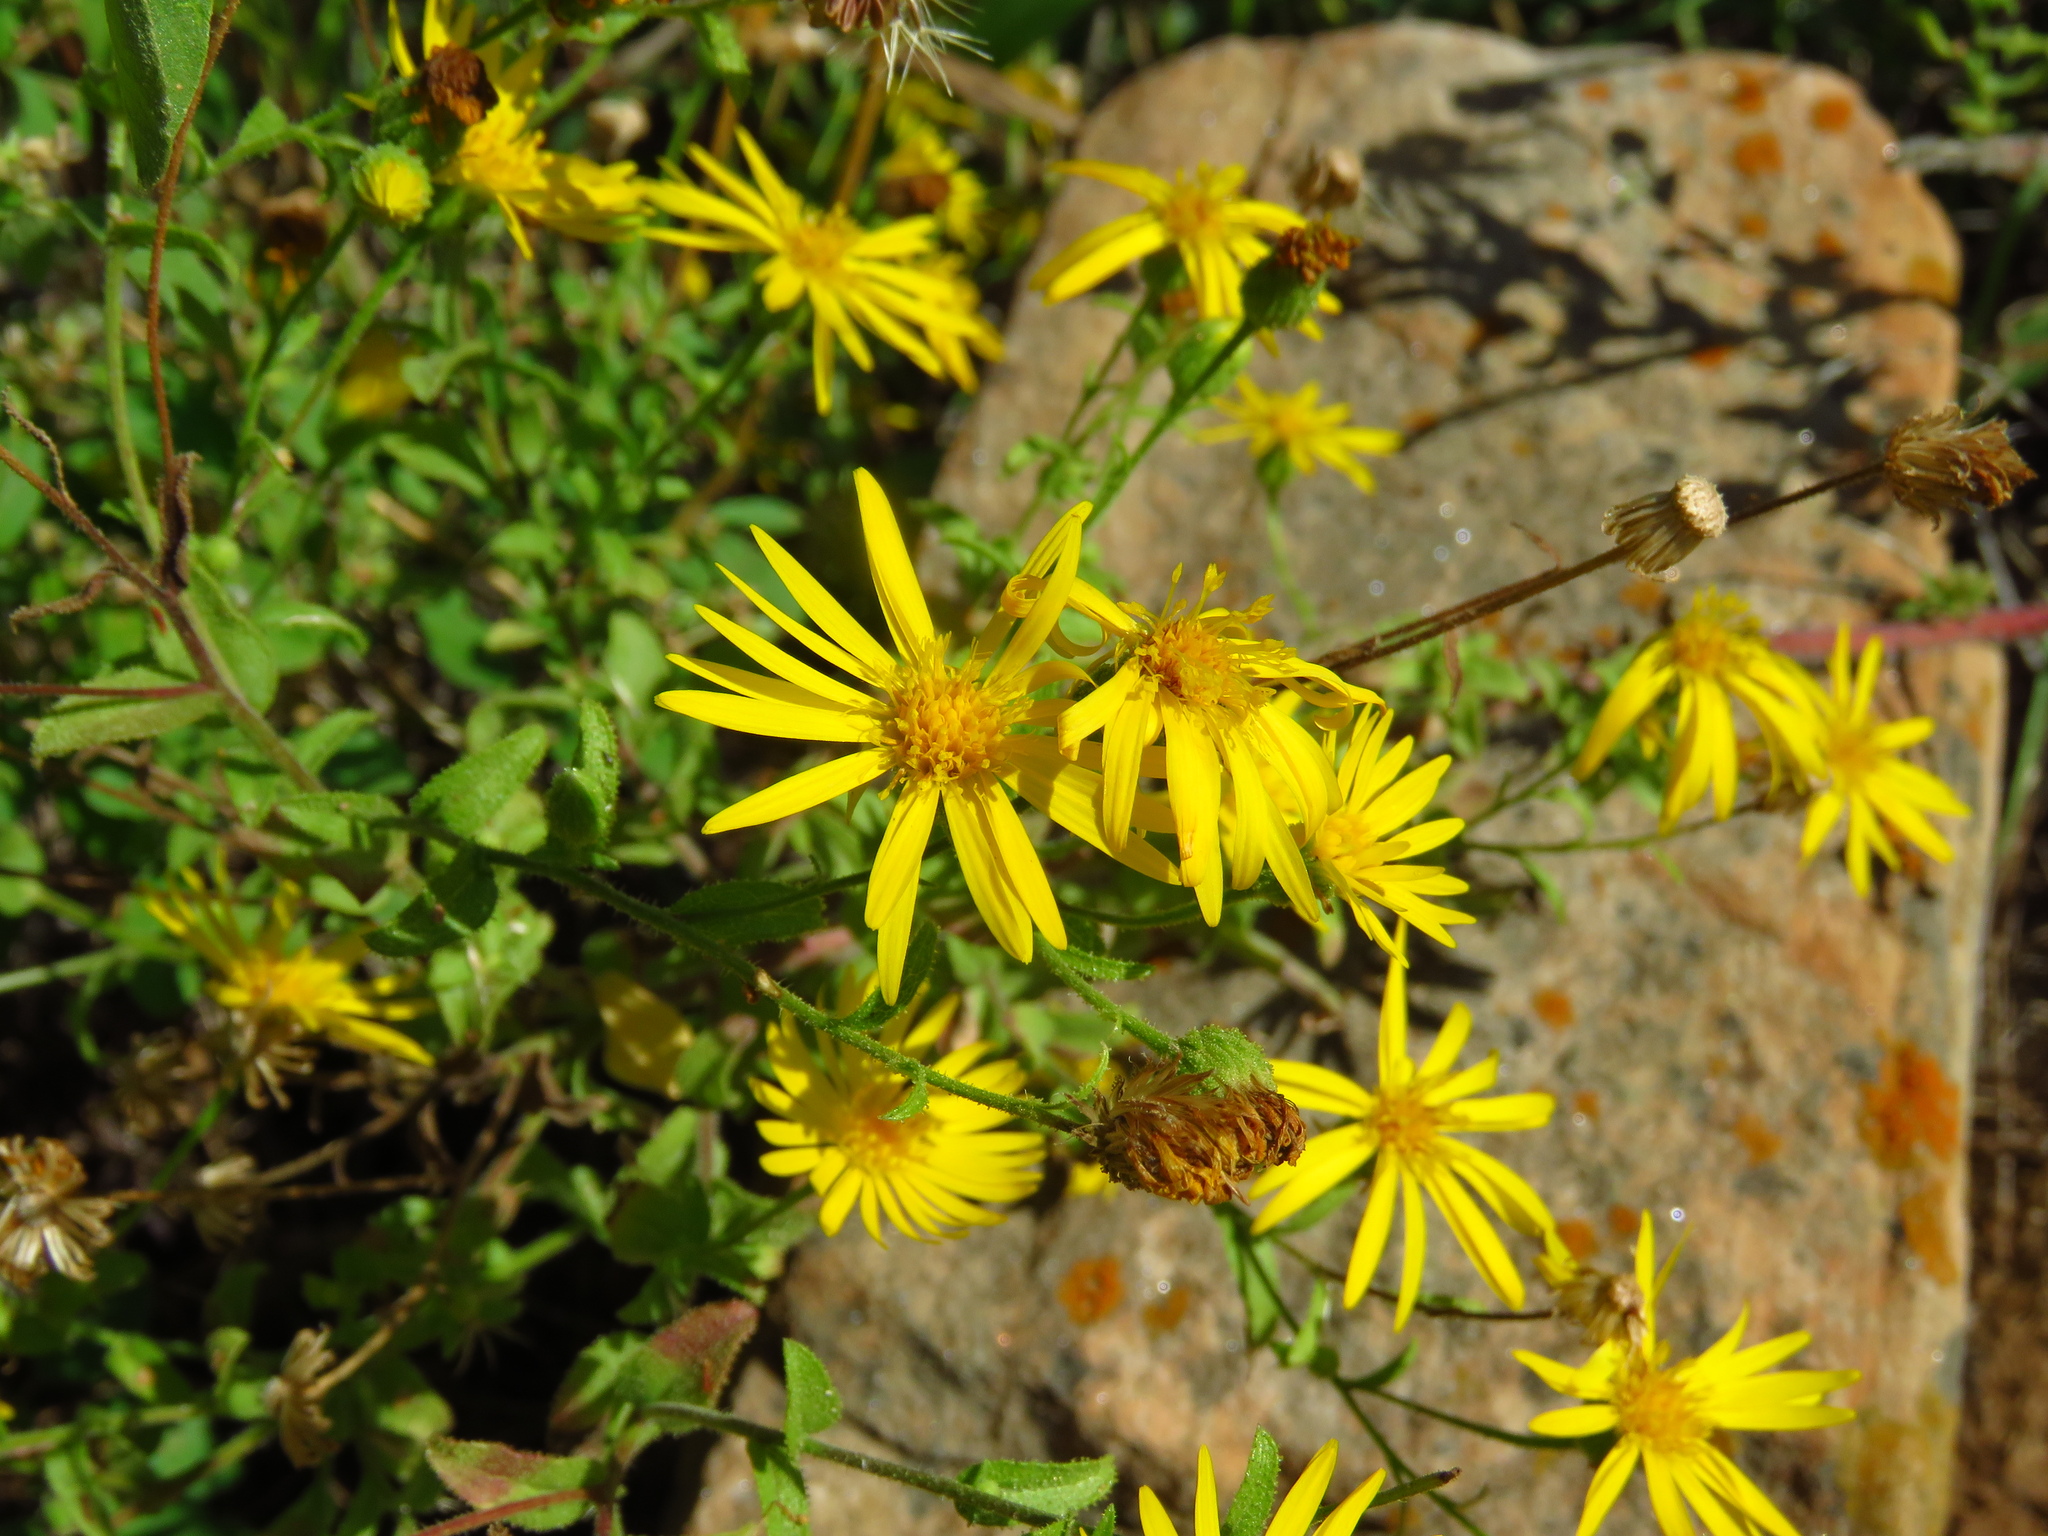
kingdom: Plantae
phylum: Tracheophyta
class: Magnoliopsida
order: Asterales
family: Asteraceae
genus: Heterotheca
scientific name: Heterotheca subaxillaris
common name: Camphorweed
